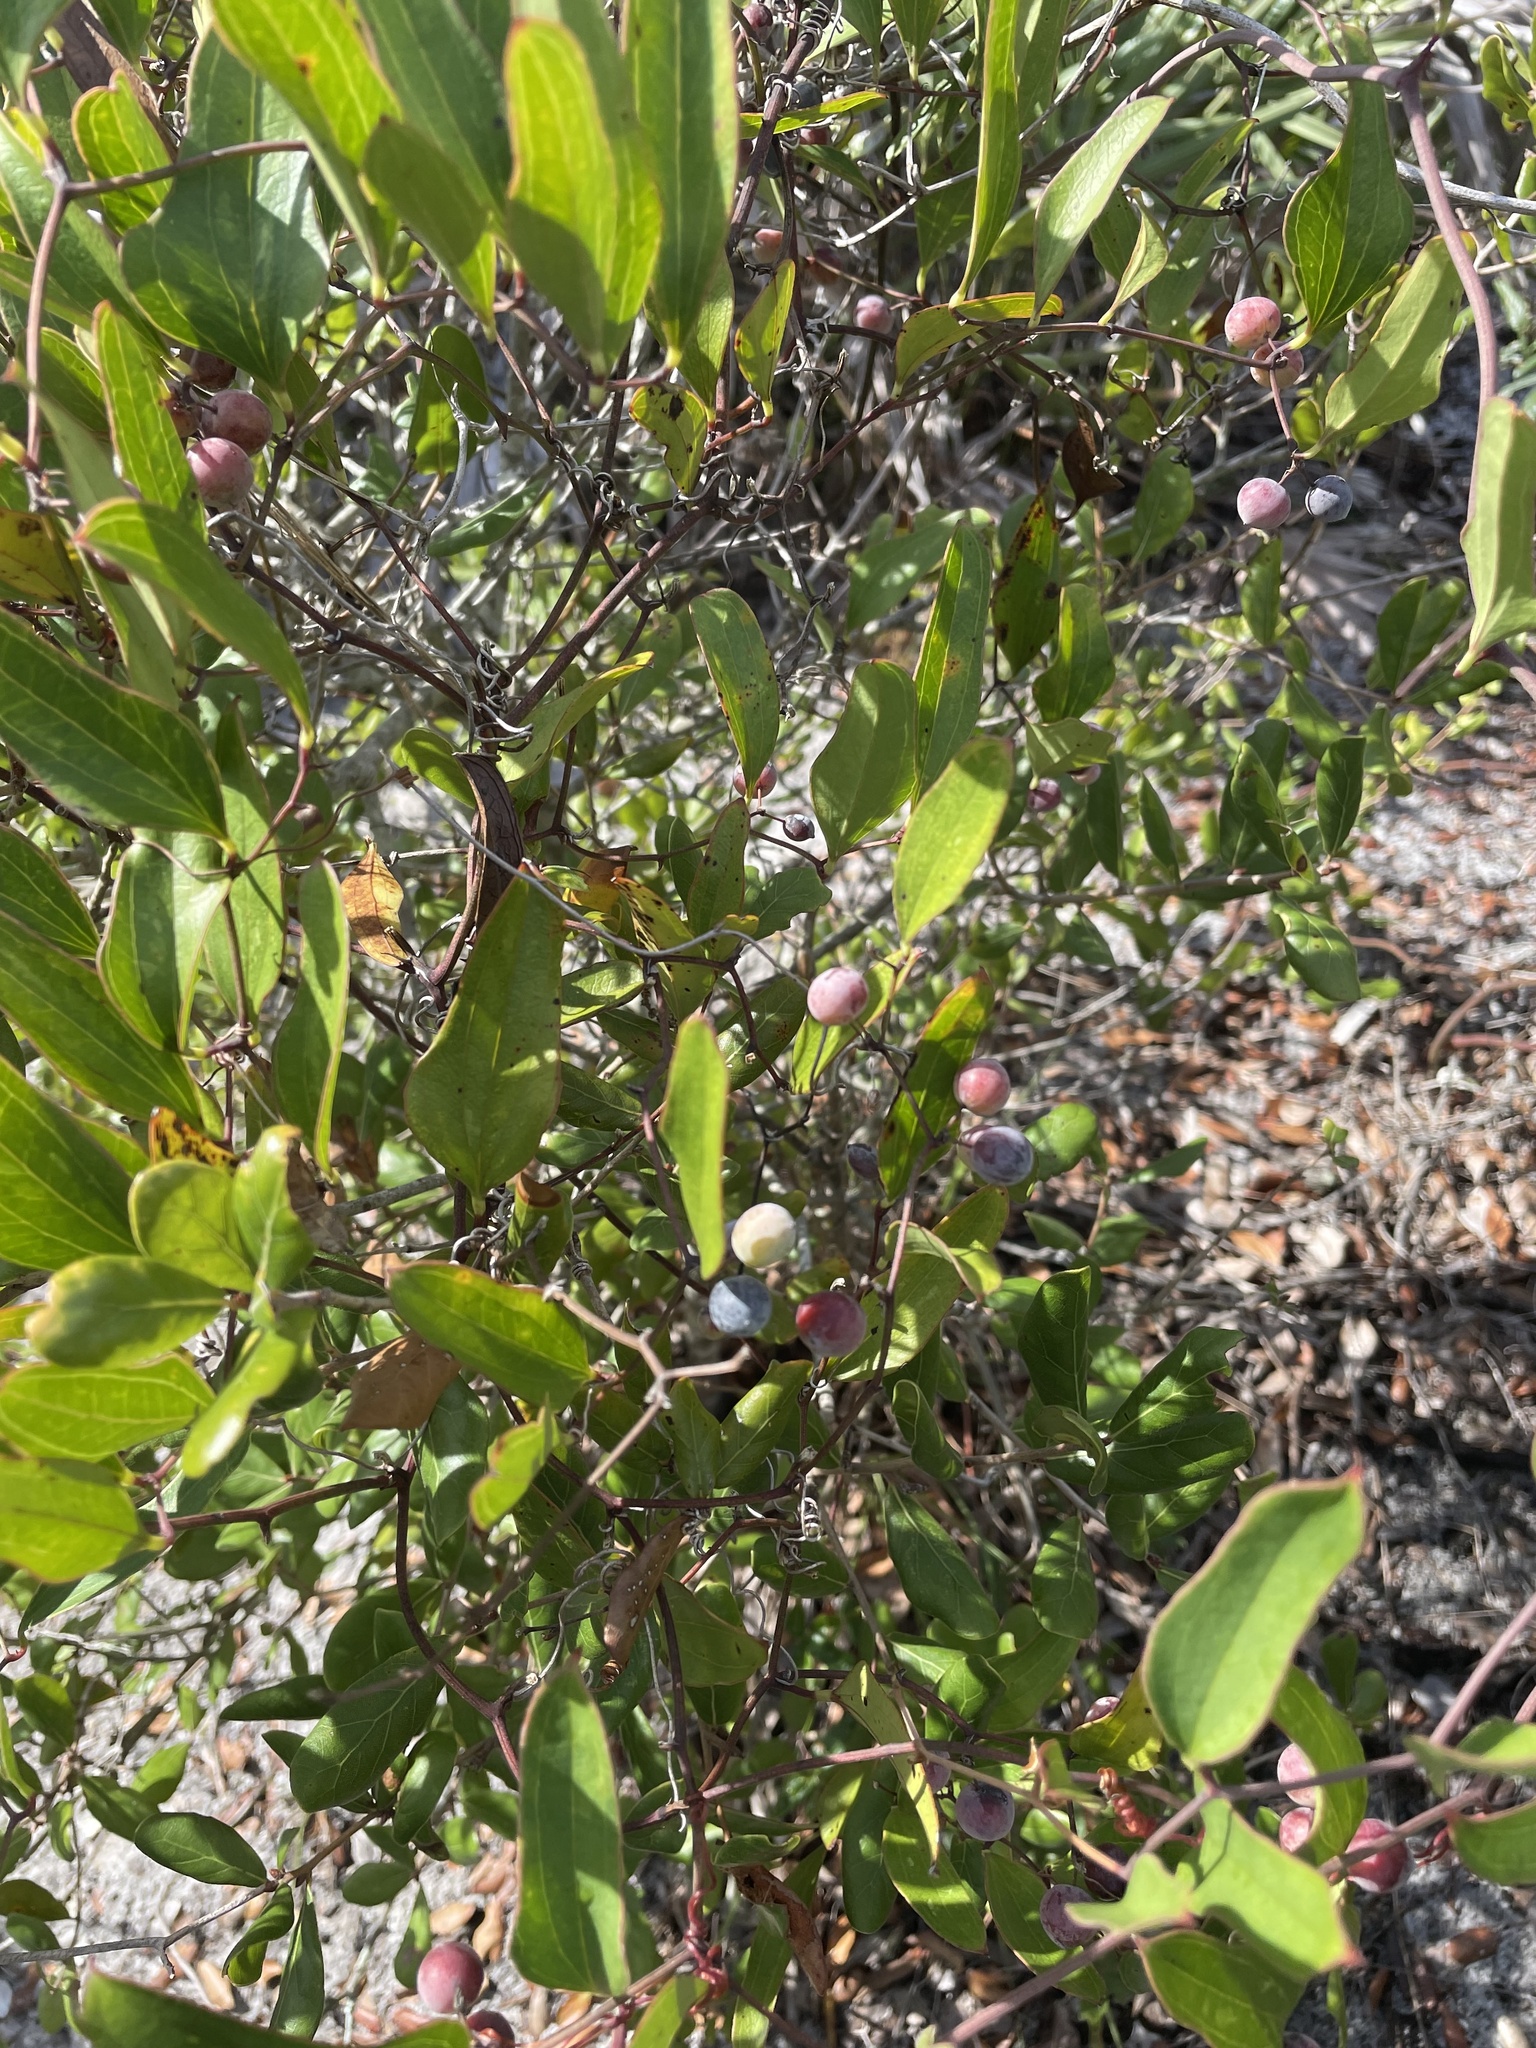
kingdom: Plantae
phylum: Tracheophyta
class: Liliopsida
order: Liliales
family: Smilacaceae
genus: Smilax
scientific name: Smilax auriculata
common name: Wild bamboo
